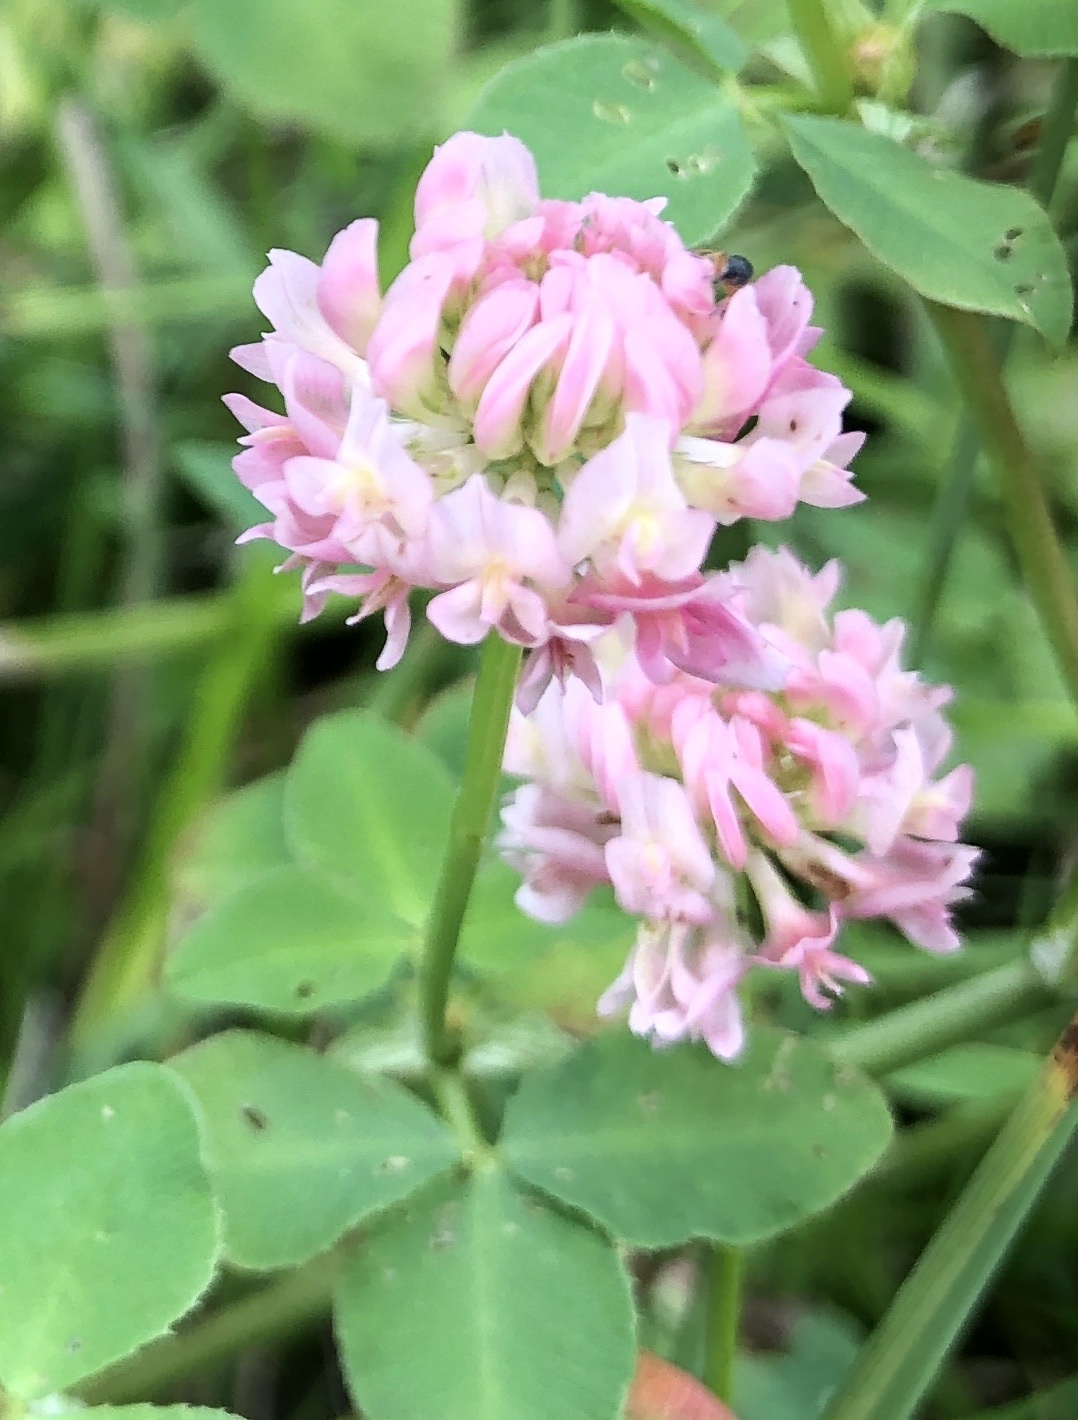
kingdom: Plantae
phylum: Tracheophyta
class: Magnoliopsida
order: Fabales
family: Fabaceae
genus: Trifolium
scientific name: Trifolium hybridum
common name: Alsike clover
